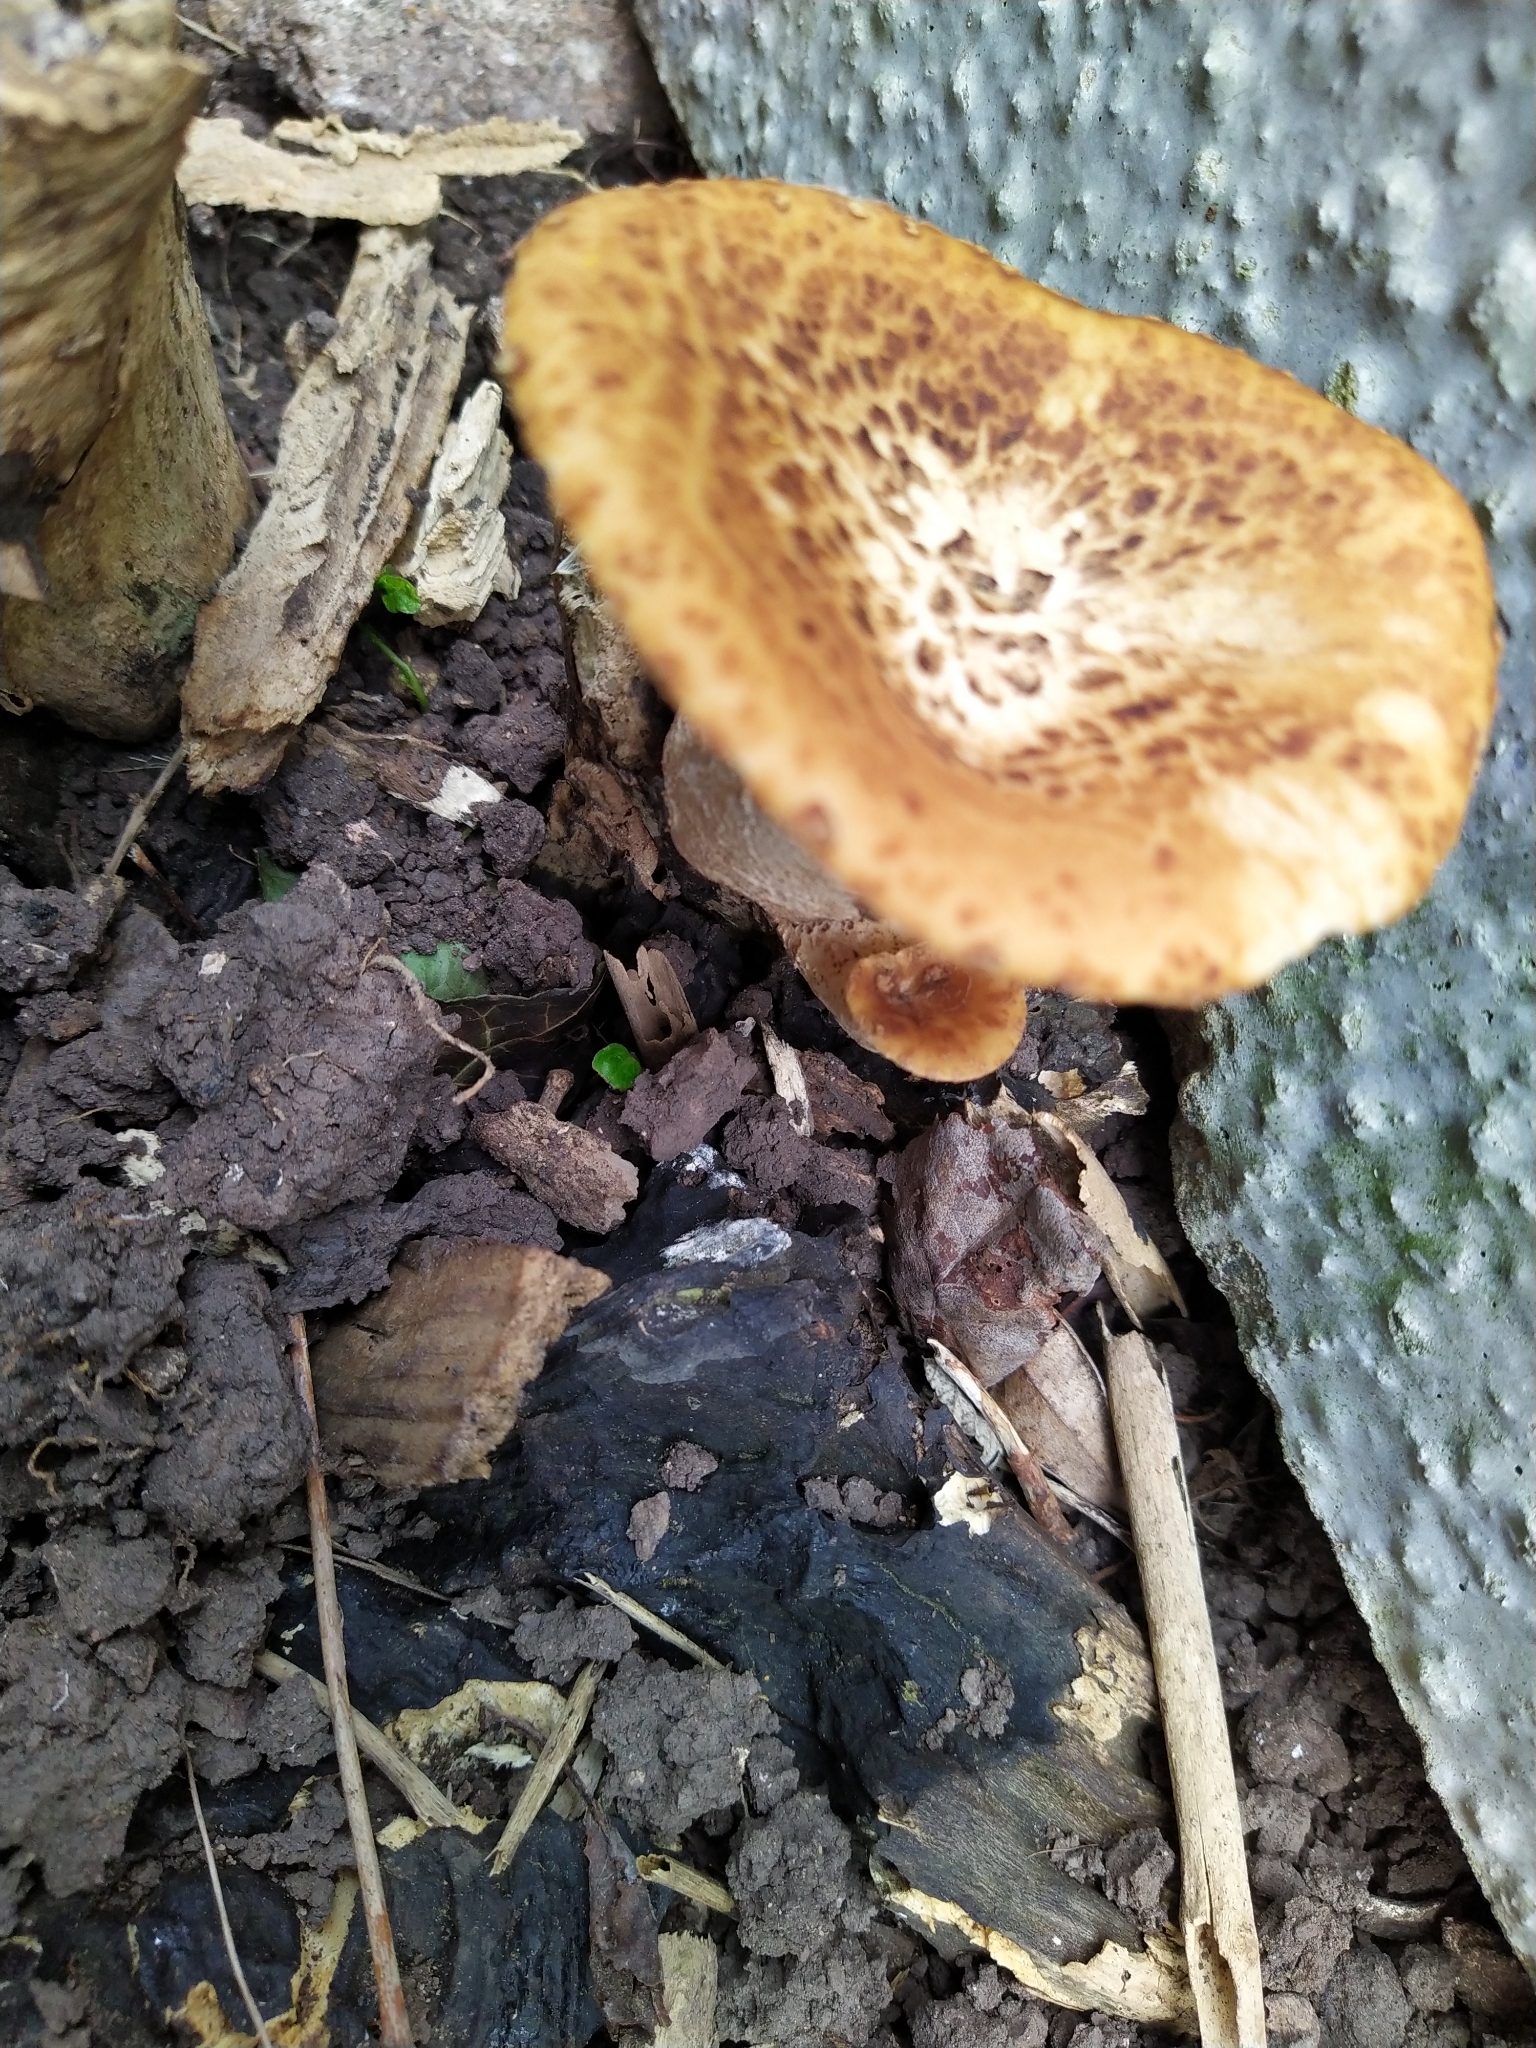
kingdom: Fungi
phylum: Basidiomycota
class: Agaricomycetes
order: Polyporales
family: Polyporaceae
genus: Cerioporus
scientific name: Cerioporus squamosus
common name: Dryad's saddle
